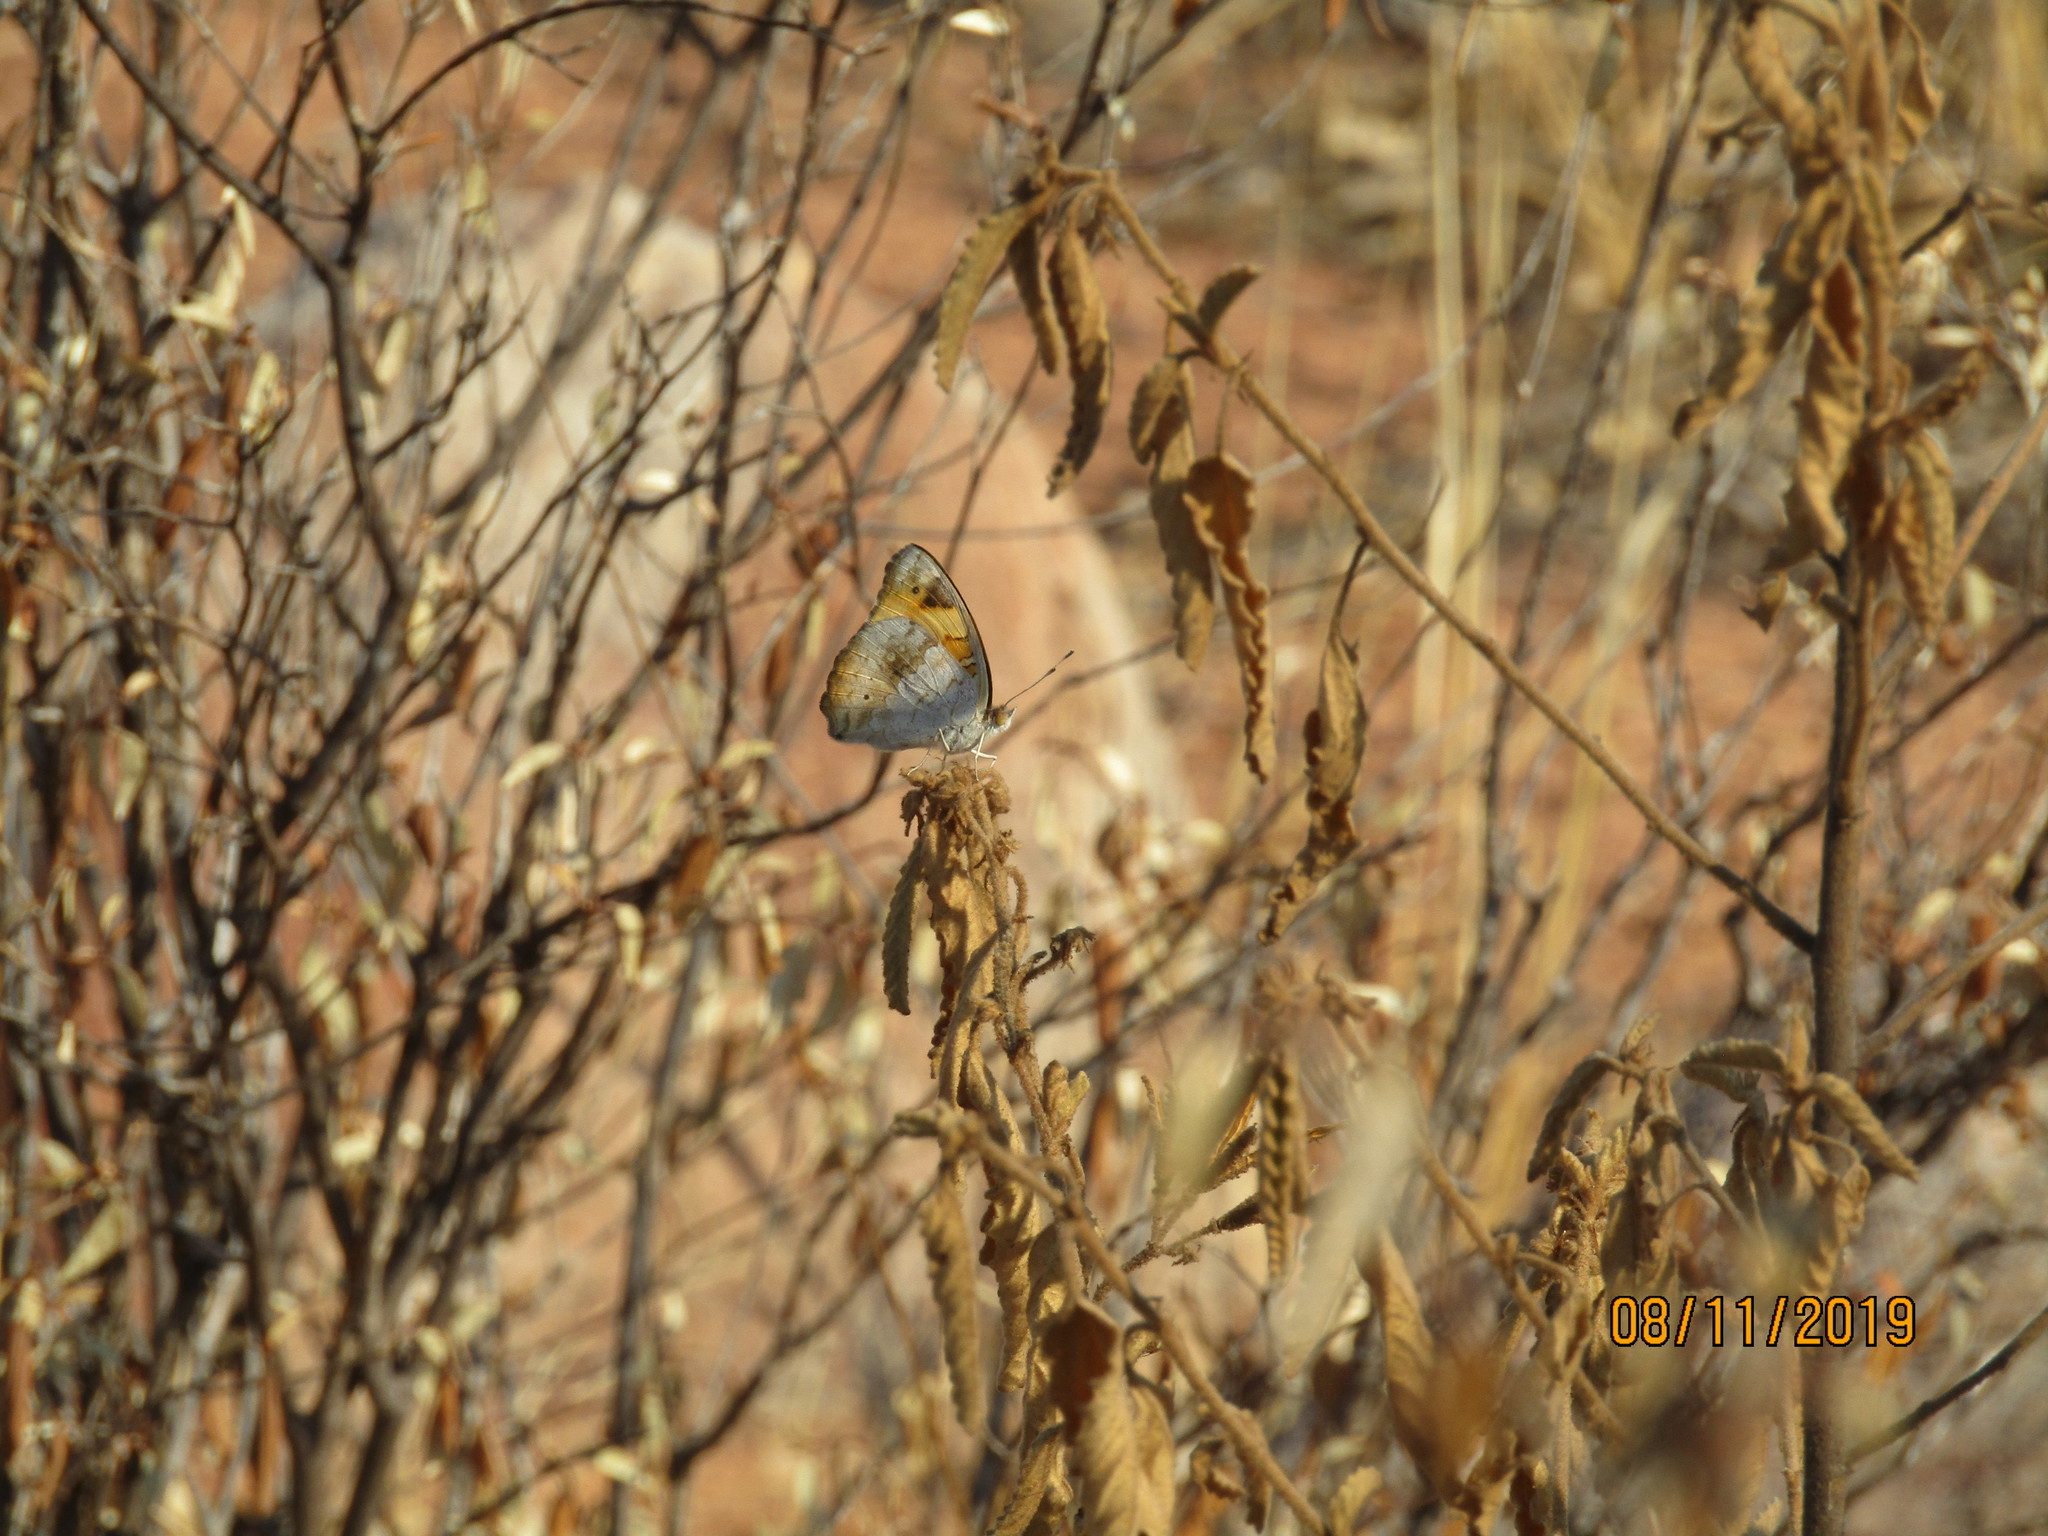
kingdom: Animalia
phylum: Arthropoda
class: Insecta
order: Lepidoptera
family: Nymphalidae
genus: Junonia
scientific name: Junonia hierta
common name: Yellow pansy
